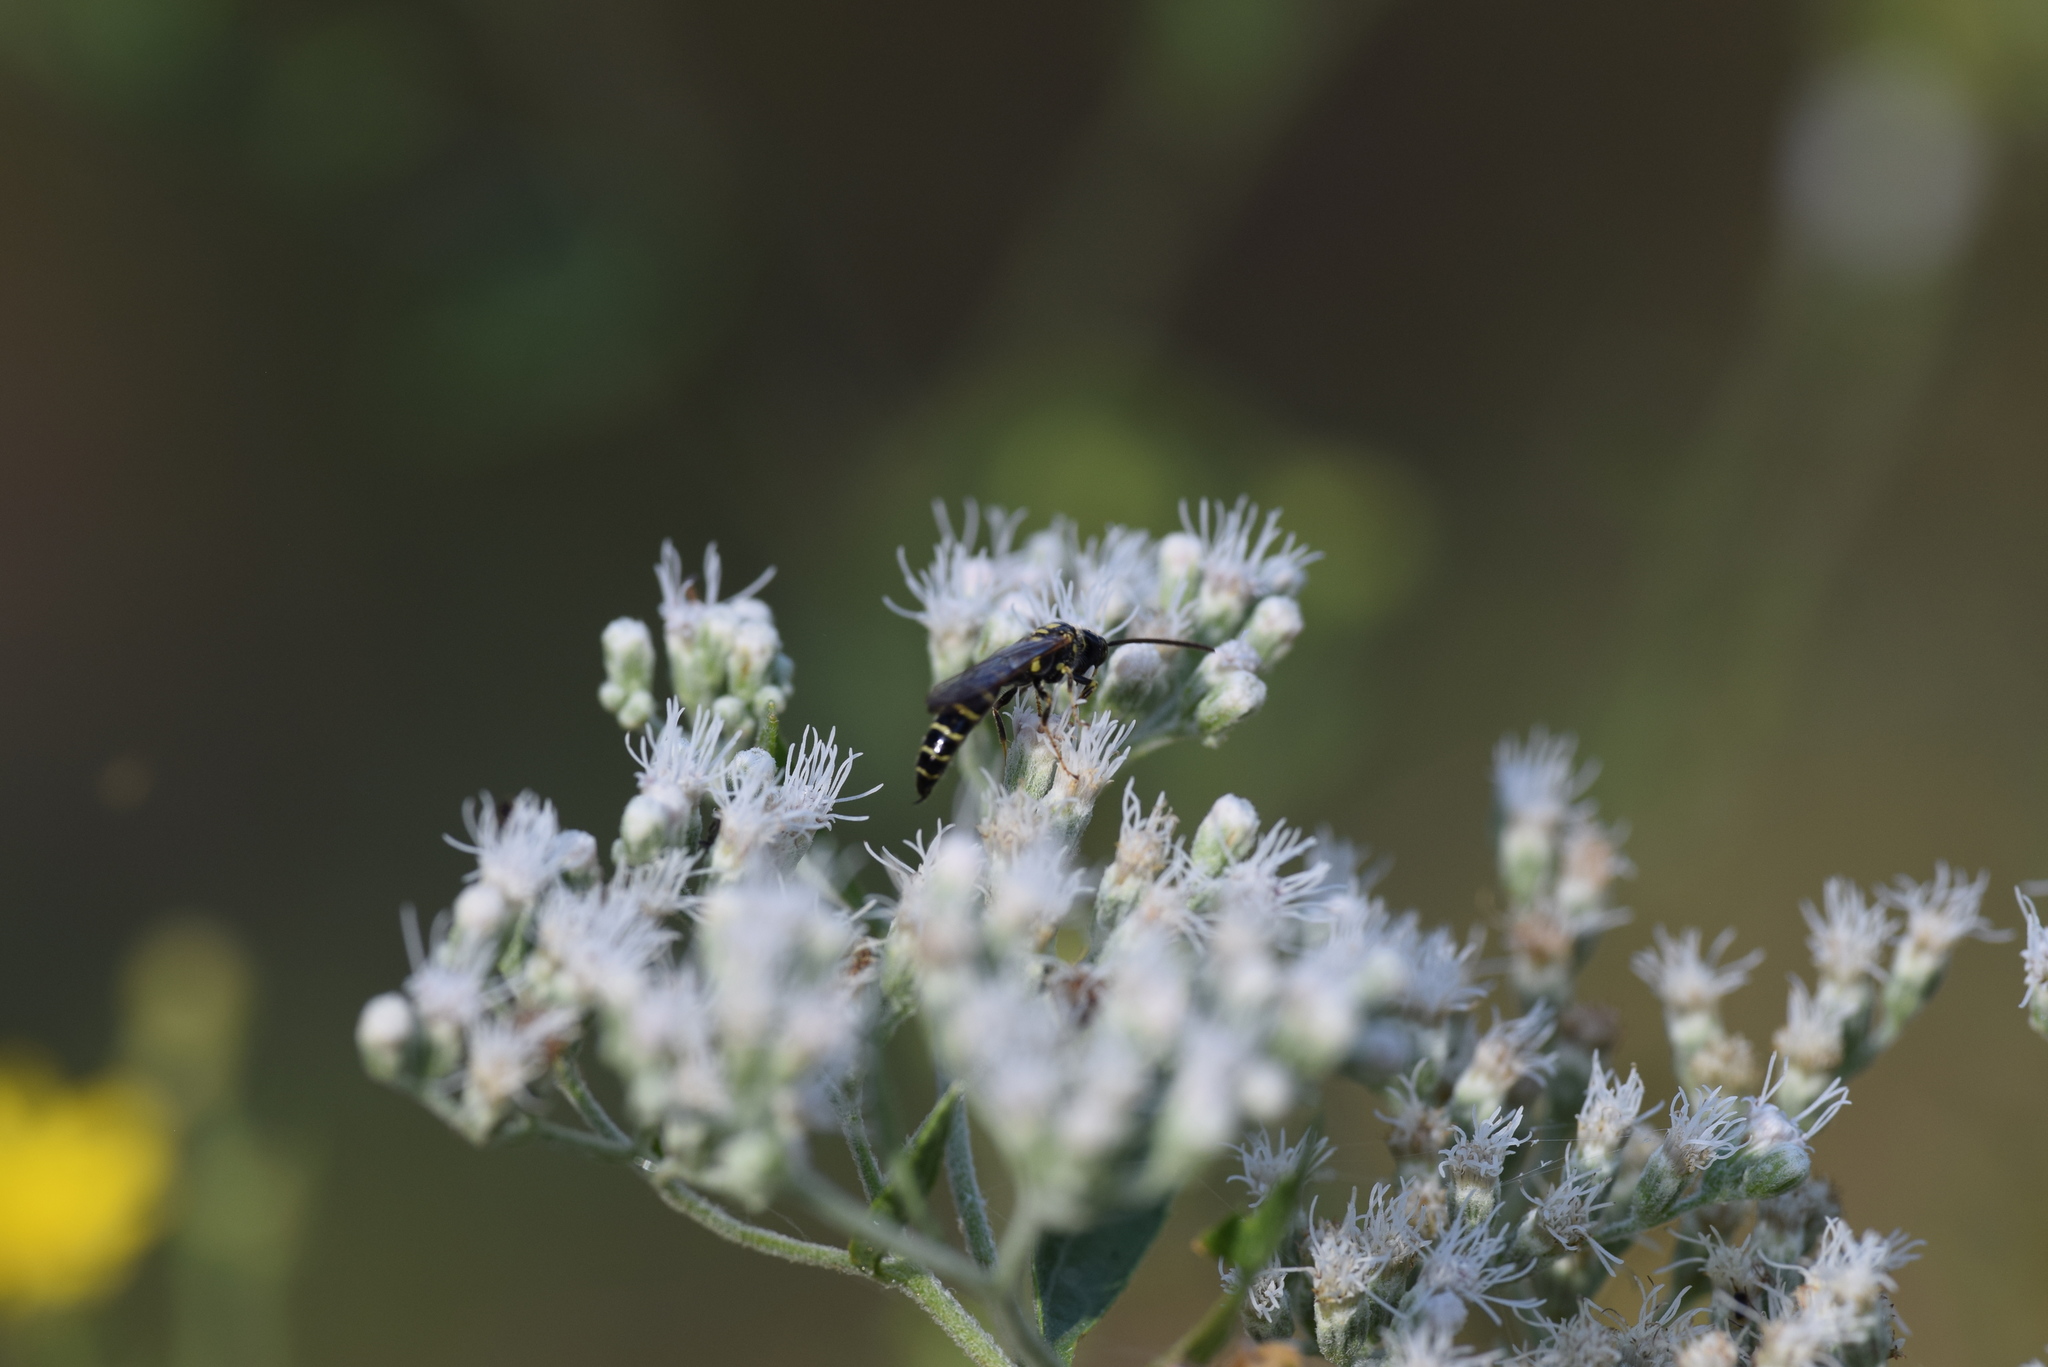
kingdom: Animalia
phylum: Arthropoda
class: Insecta
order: Hymenoptera
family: Tiphiidae
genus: Myzinum
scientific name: Myzinum quinquecinctum
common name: Five-banded thynnid wasp
